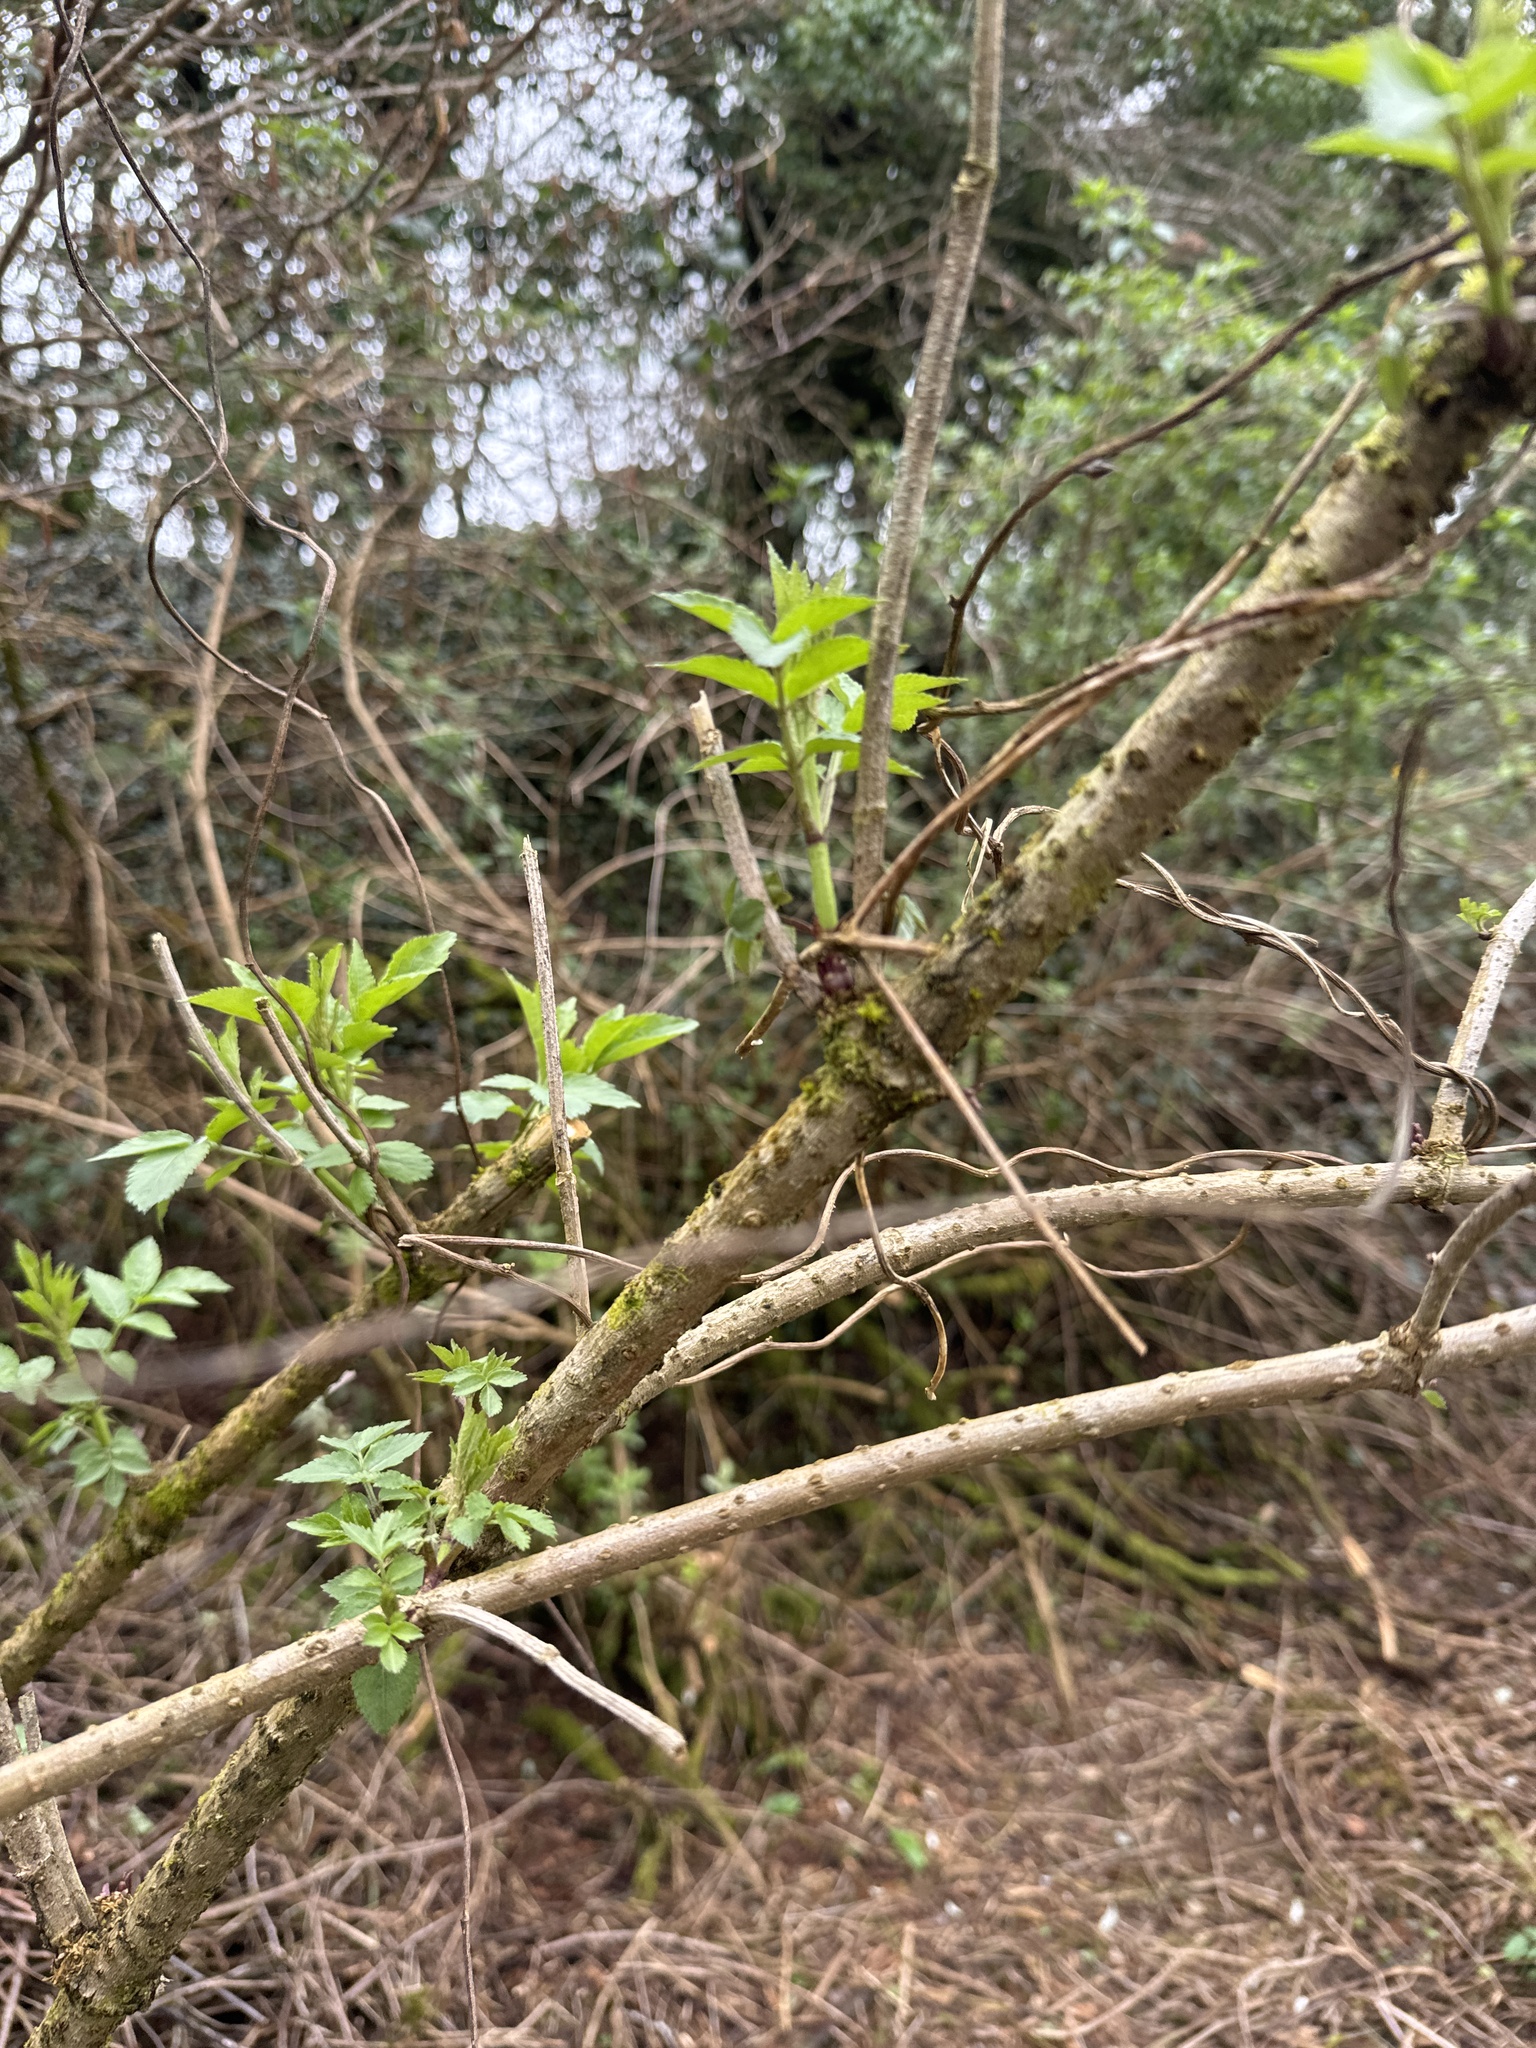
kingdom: Plantae
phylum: Tracheophyta
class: Magnoliopsida
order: Dipsacales
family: Viburnaceae
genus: Sambucus
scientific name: Sambucus nigra
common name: Elder
